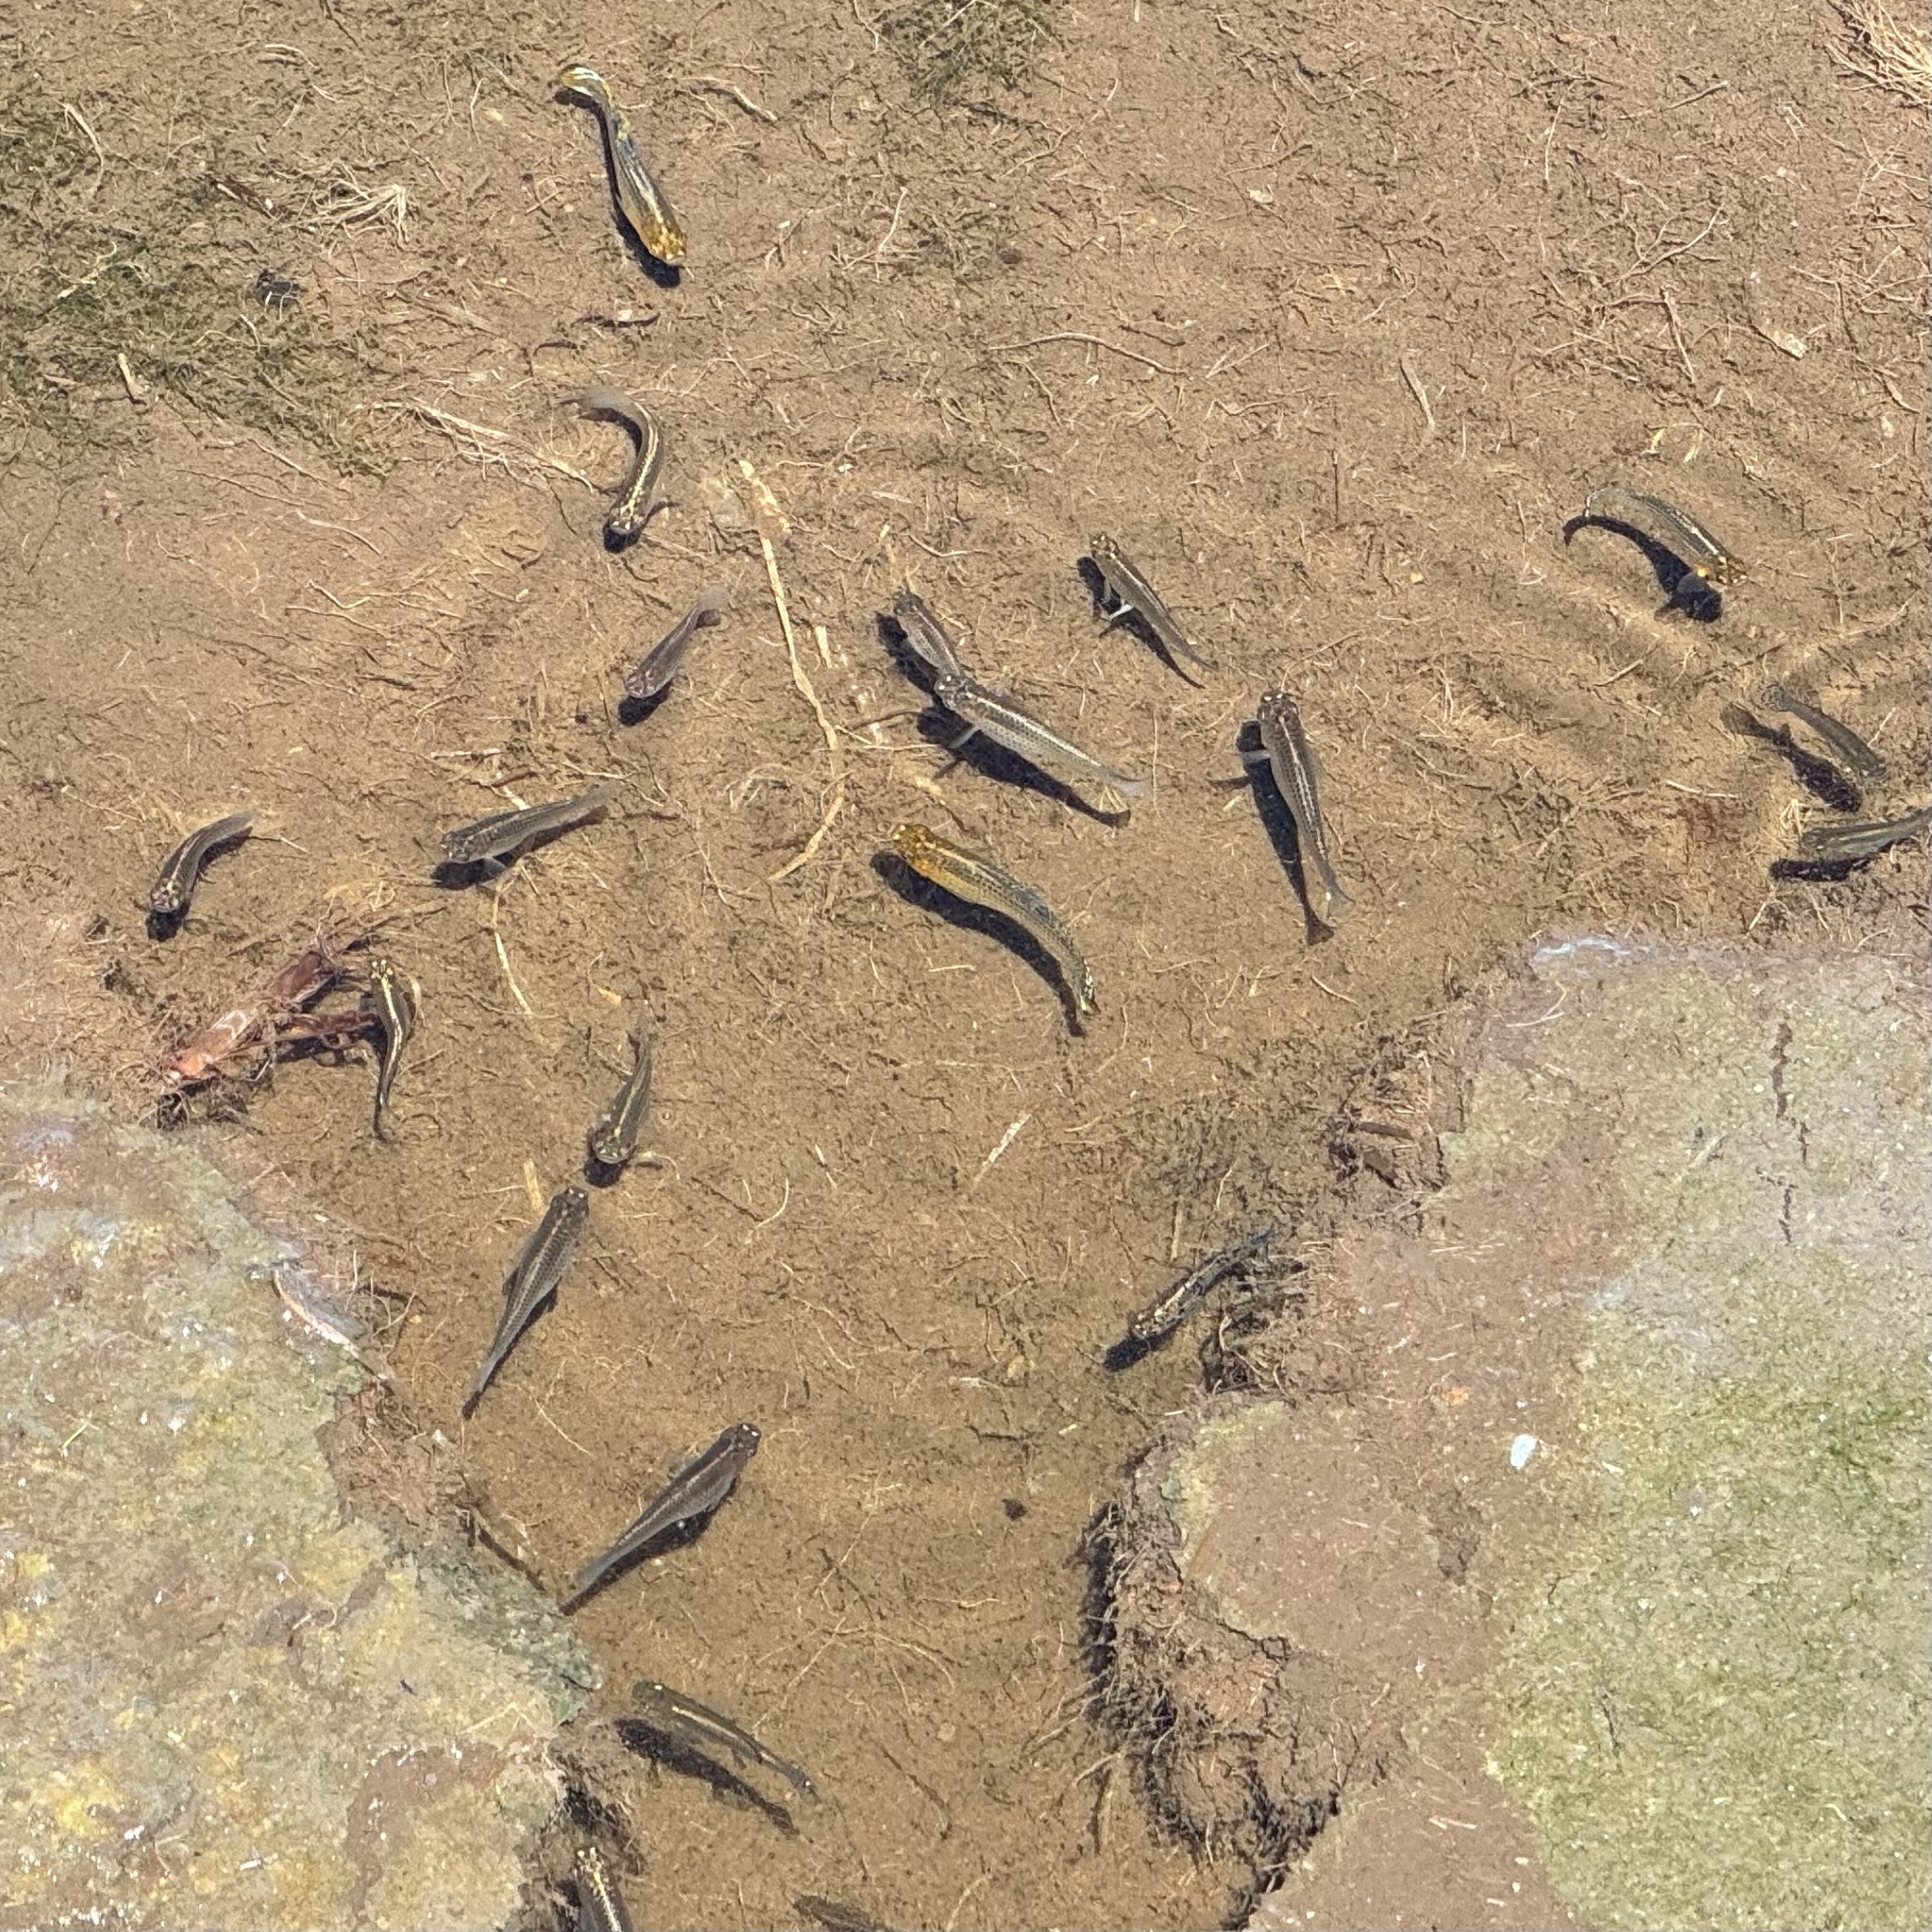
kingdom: Animalia
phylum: Chordata
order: Cyprinodontiformes
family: Poeciliidae
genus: Poecilia
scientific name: Poecilia latipinna
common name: Sailfin molly
